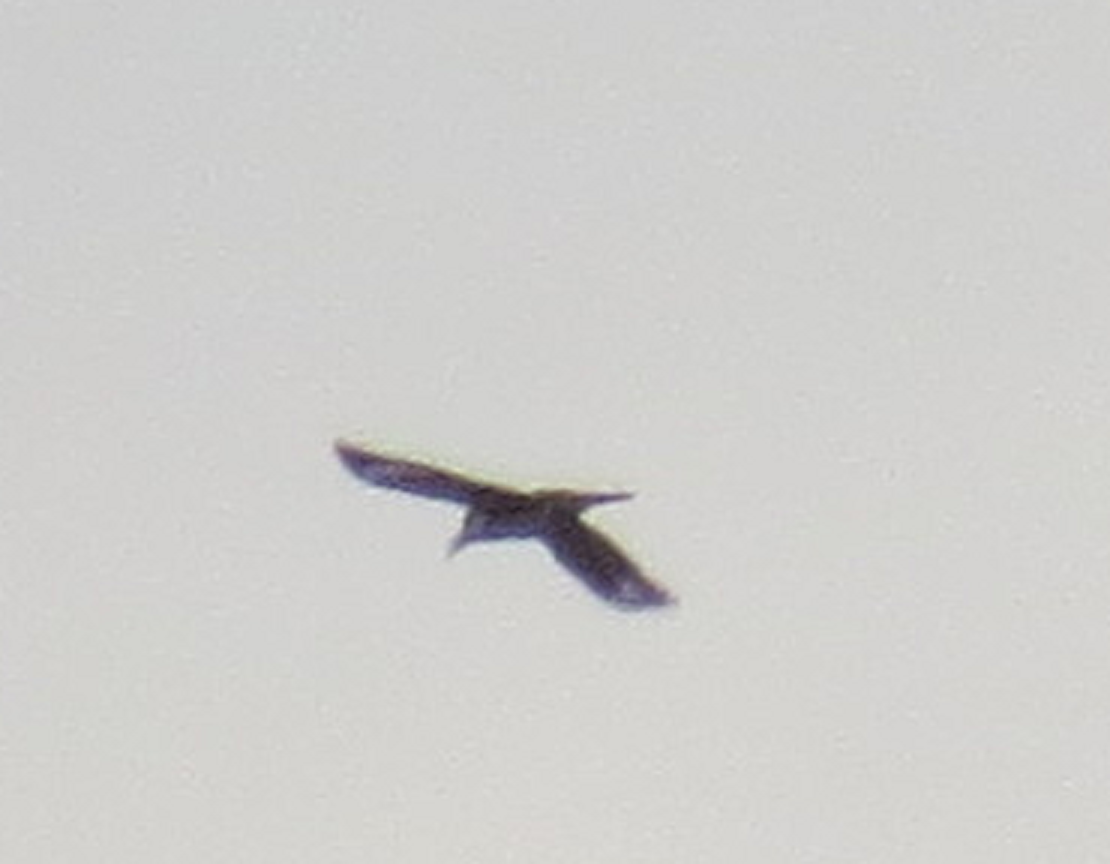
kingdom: Animalia
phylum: Chordata
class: Aves
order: Piciformes
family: Picidae
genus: Dryocopus
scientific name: Dryocopus pileatus
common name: Pileated woodpecker
